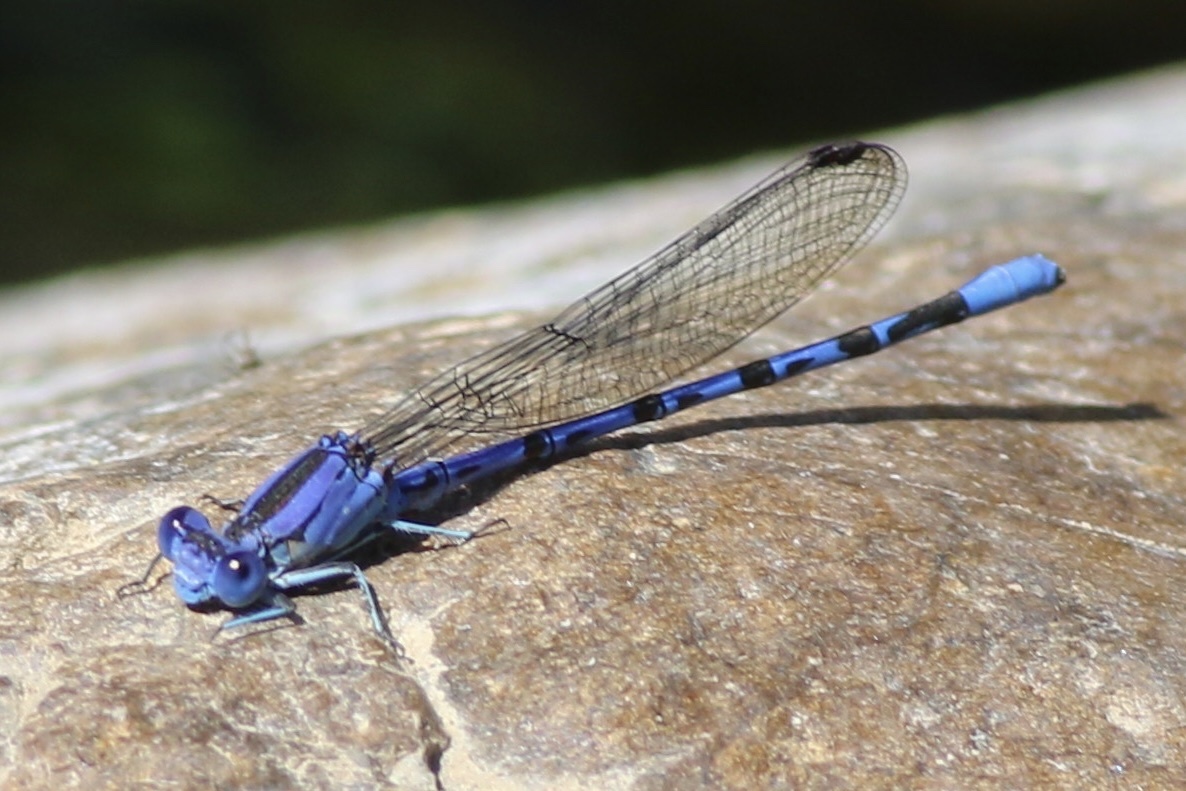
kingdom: Animalia
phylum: Arthropoda
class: Insecta
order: Odonata
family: Coenagrionidae
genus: Argia
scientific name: Argia vivida
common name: Vivid dancer
